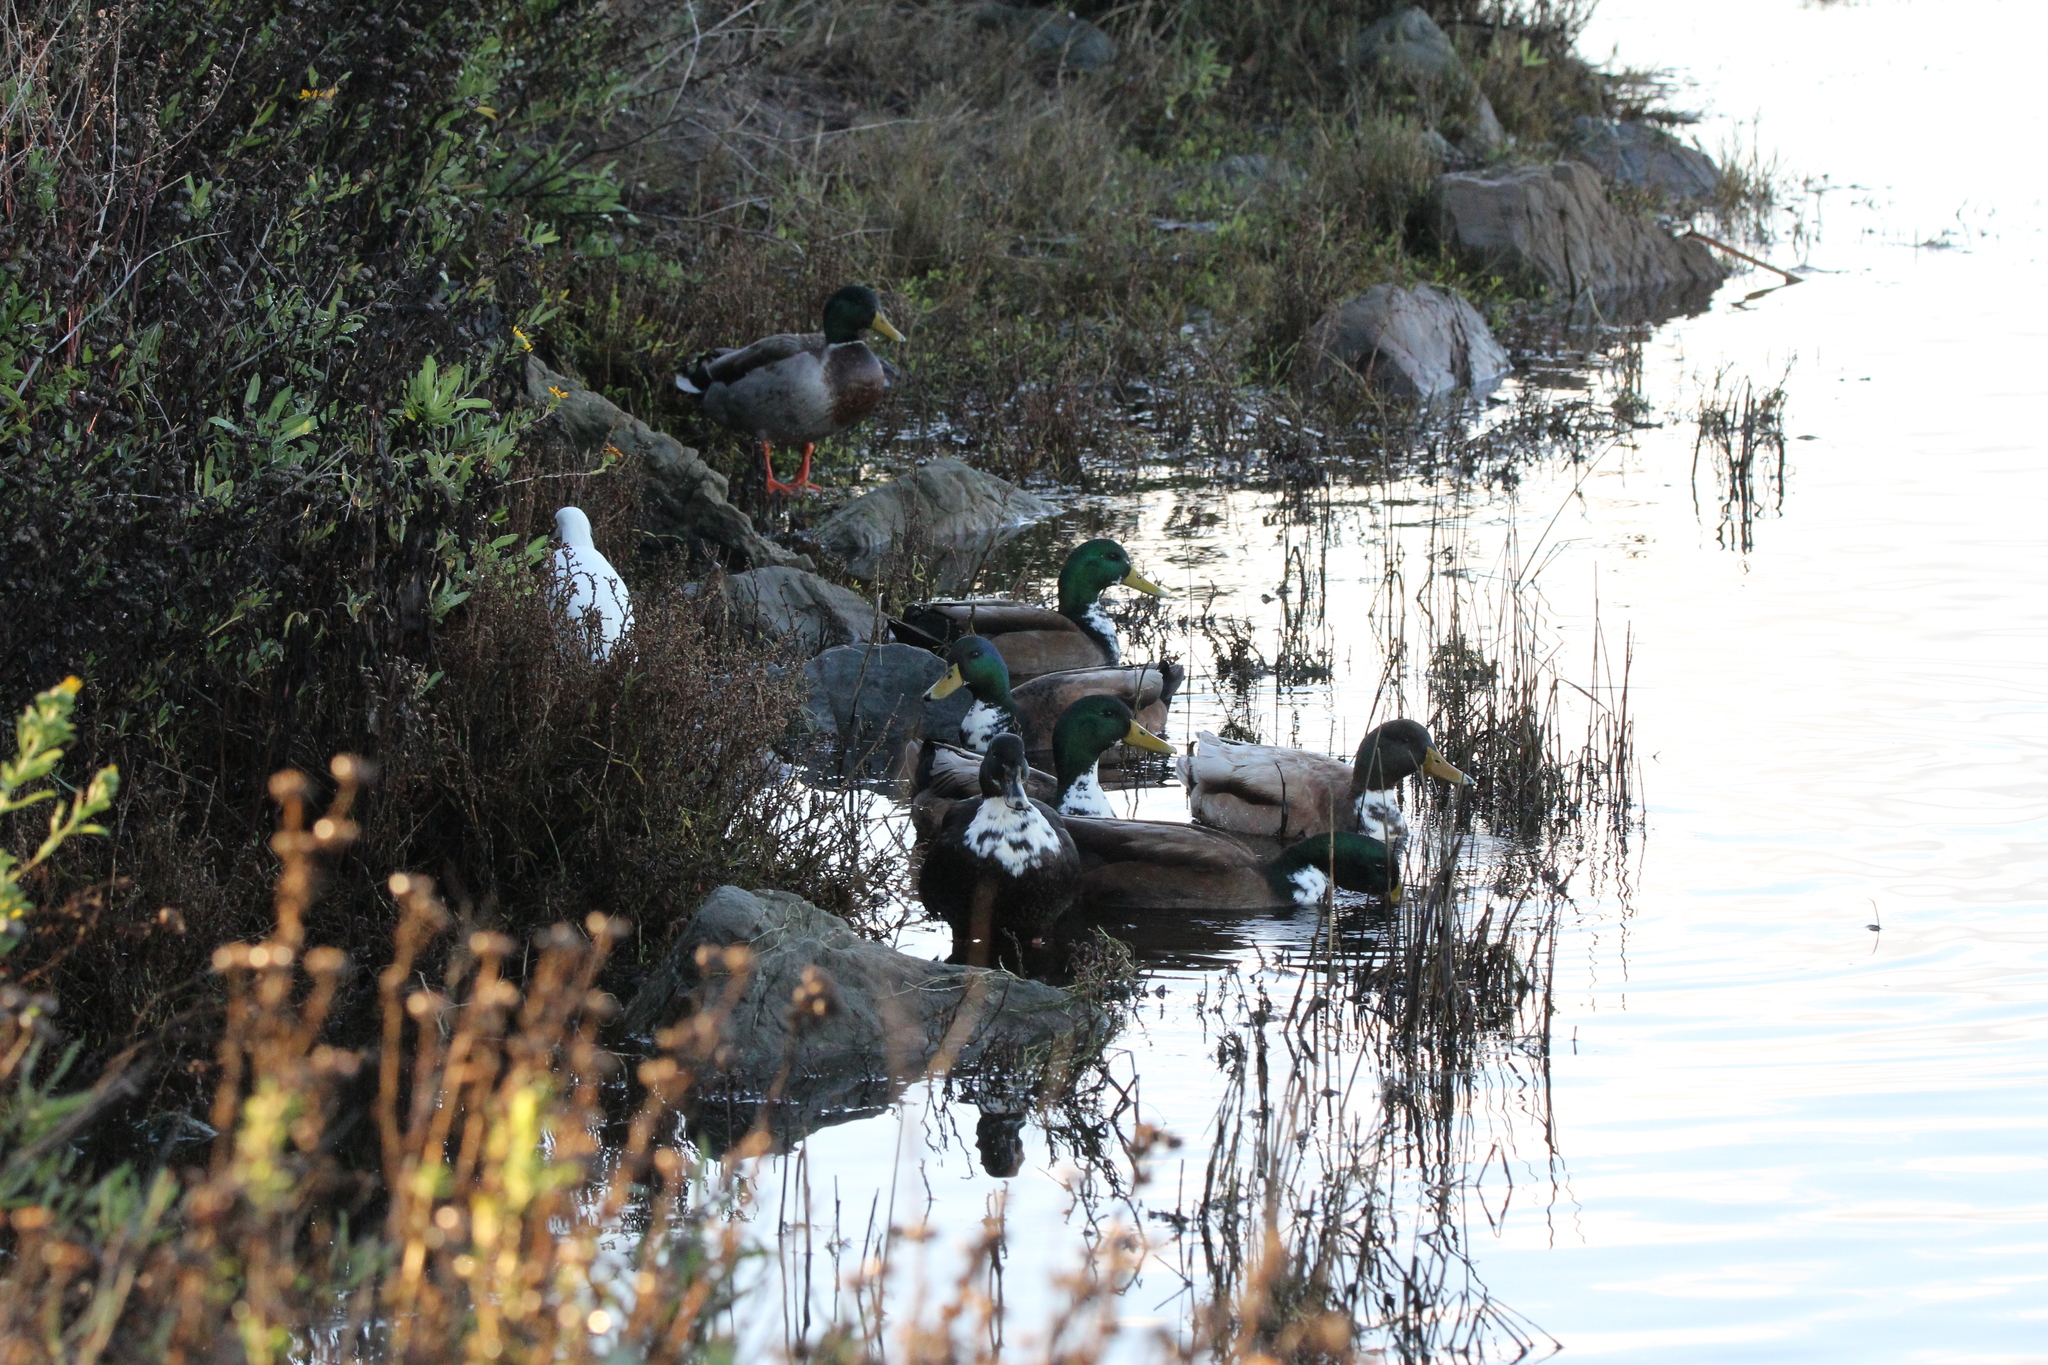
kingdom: Animalia
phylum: Chordata
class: Aves
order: Anseriformes
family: Anatidae
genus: Anas
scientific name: Anas platyrhynchos
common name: Mallard
